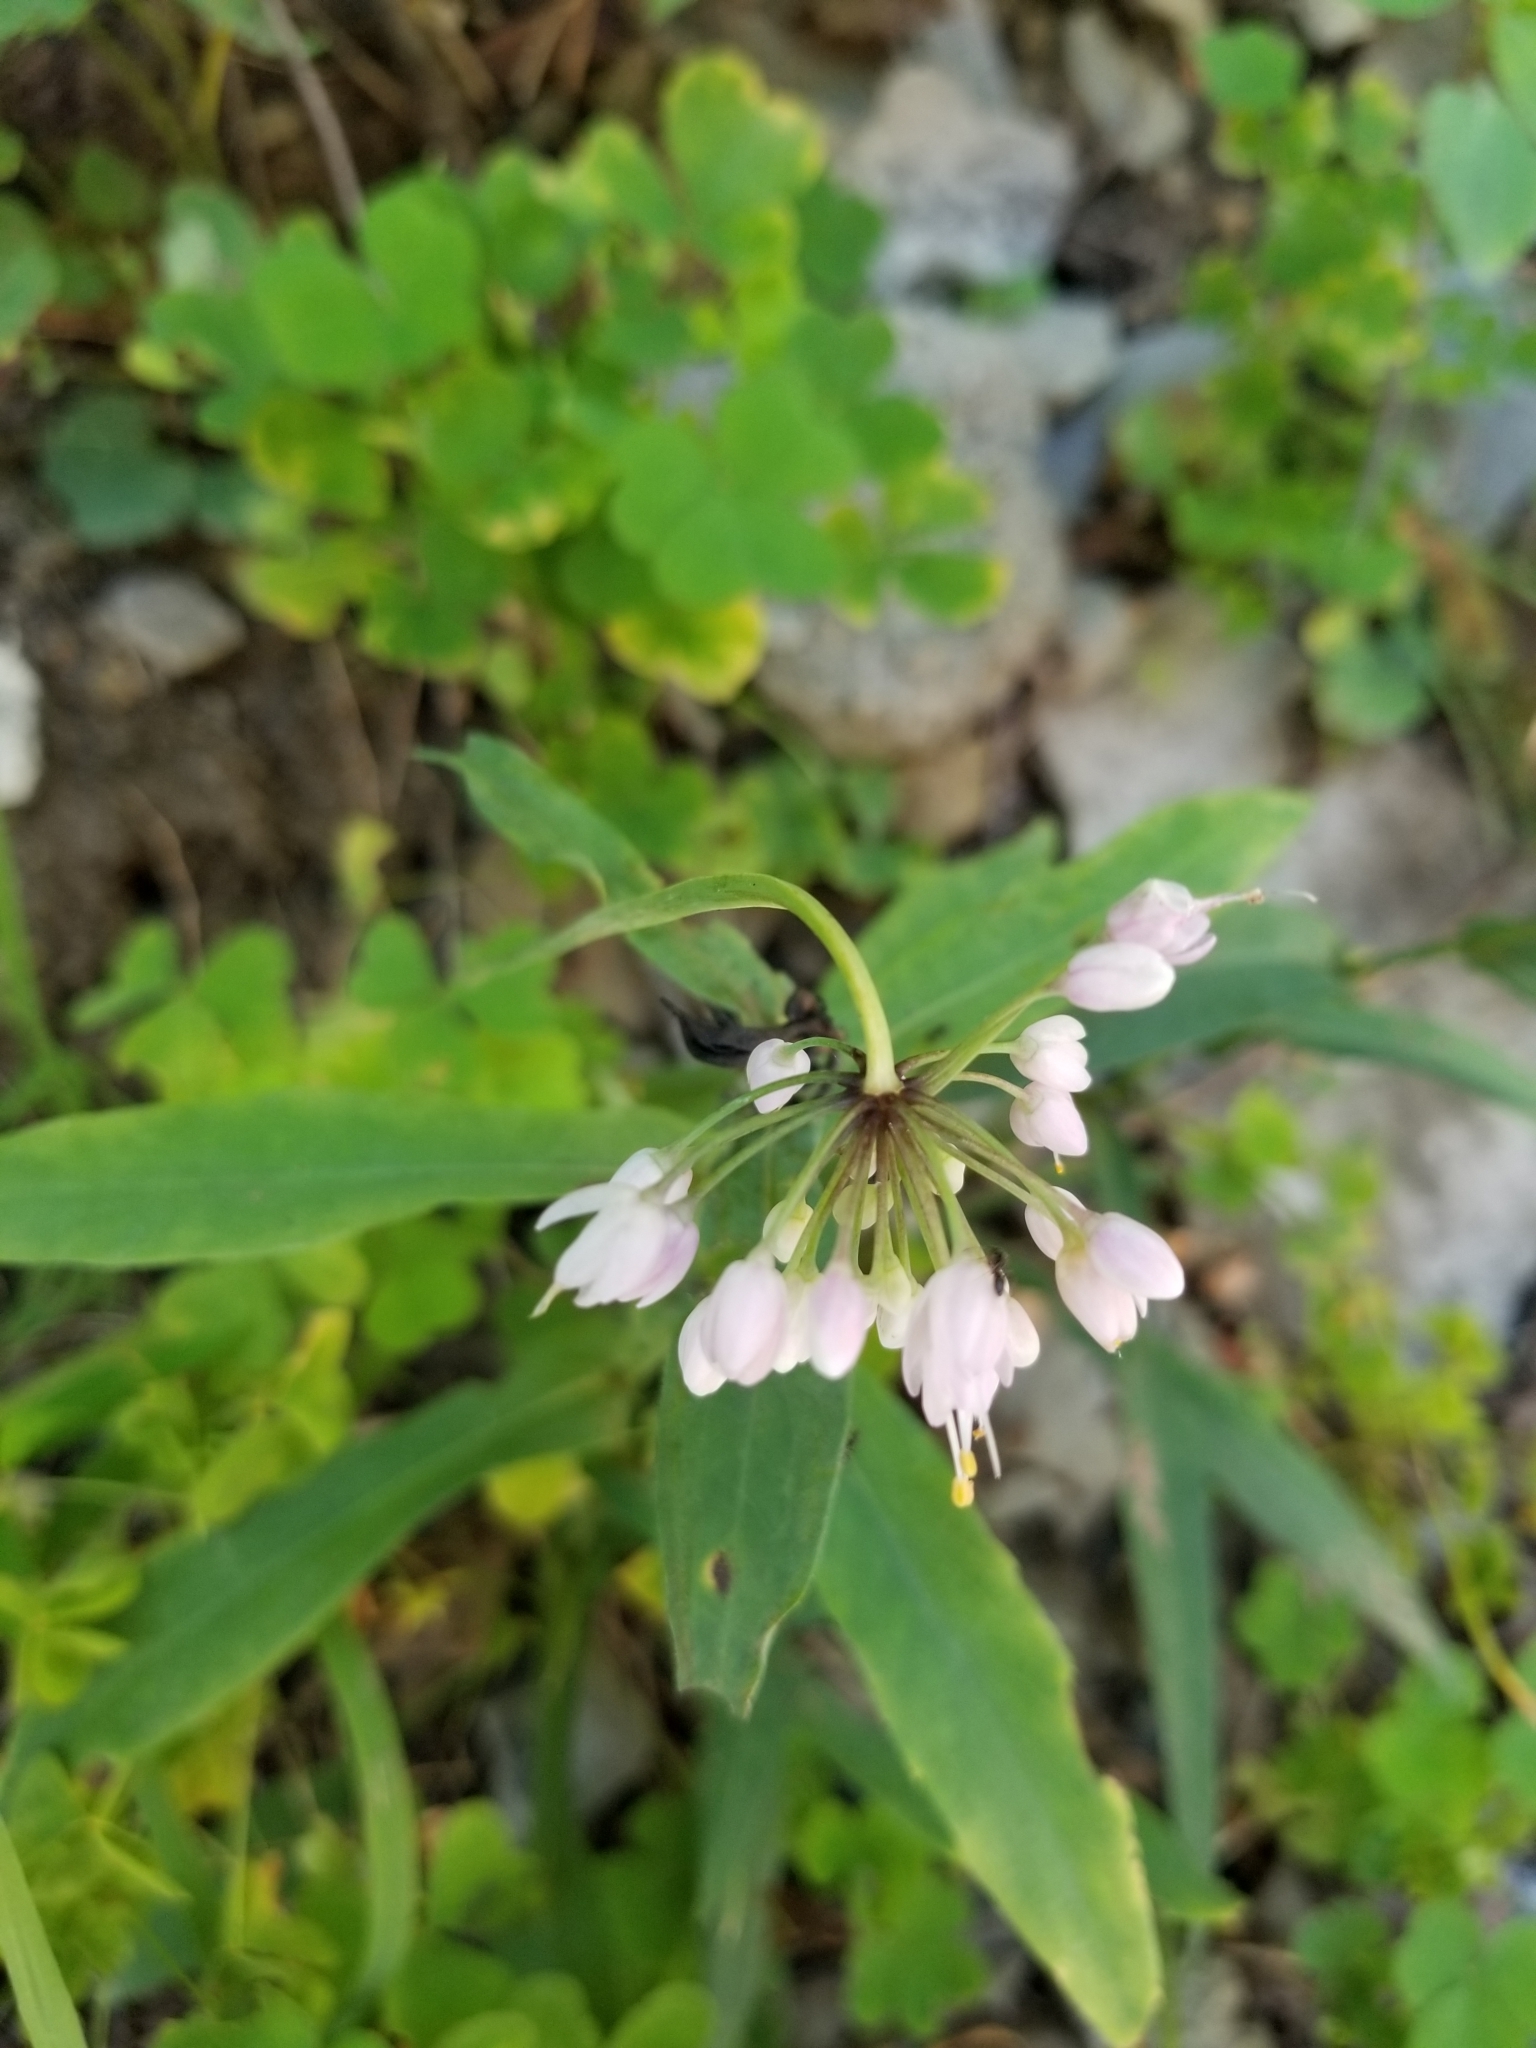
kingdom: Plantae
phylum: Tracheophyta
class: Liliopsida
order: Asparagales
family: Amaryllidaceae
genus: Allium
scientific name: Allium cernuum
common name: Nodding onion
